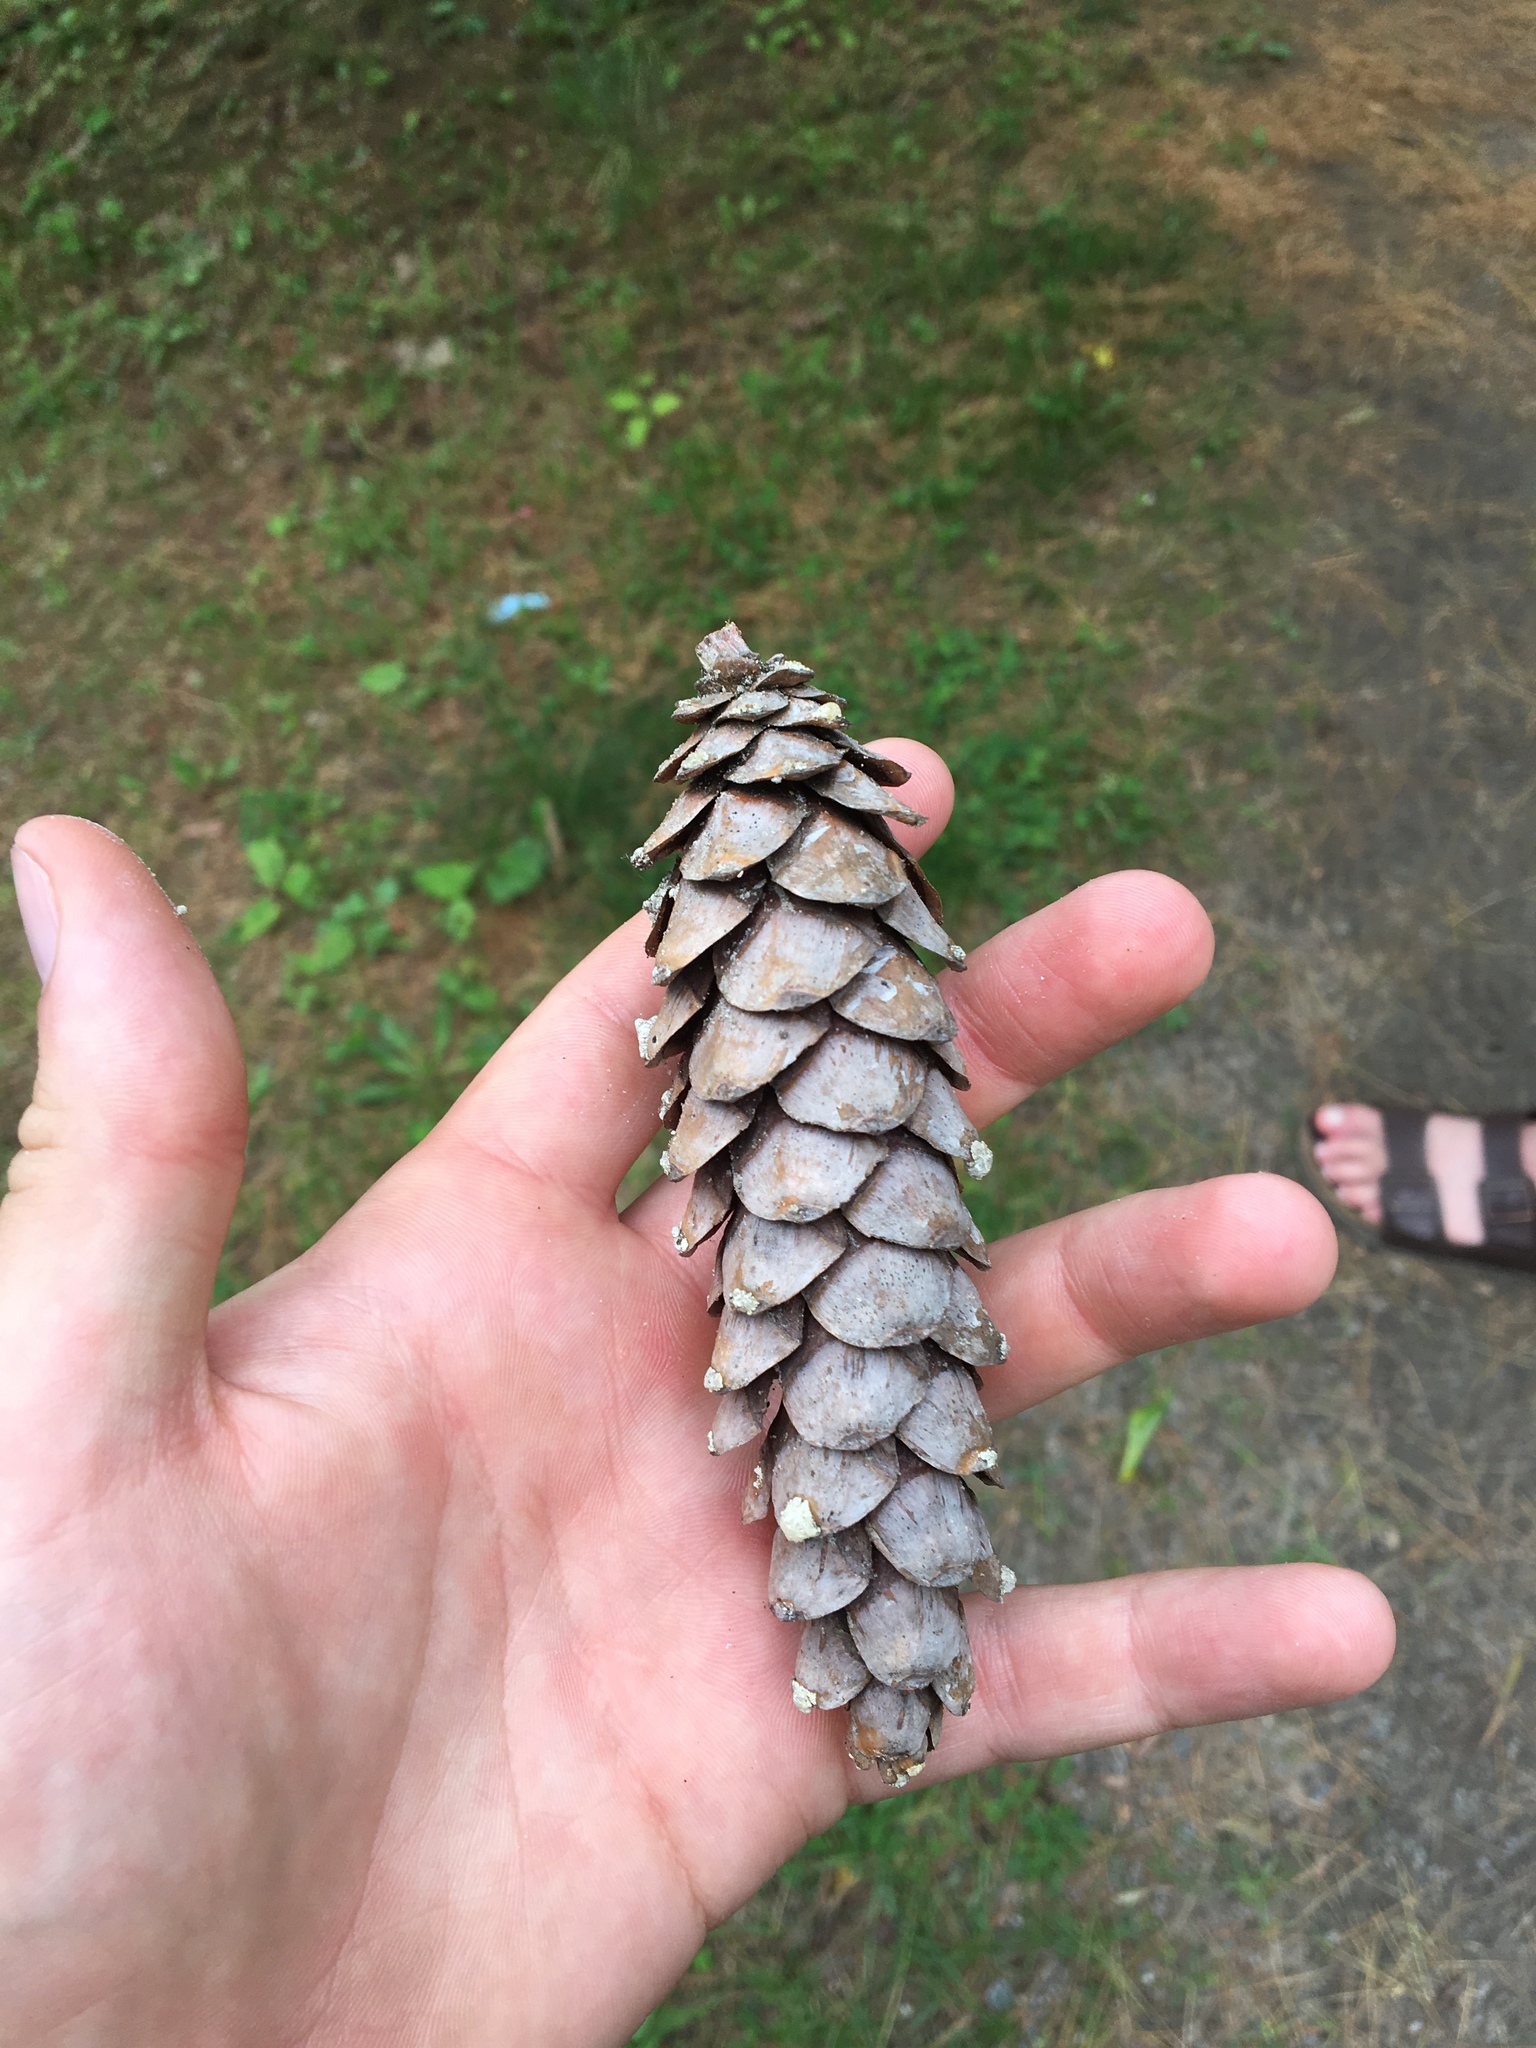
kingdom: Plantae
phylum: Tracheophyta
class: Pinopsida
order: Pinales
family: Pinaceae
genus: Pinus
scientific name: Pinus strobus
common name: Weymouth pine
